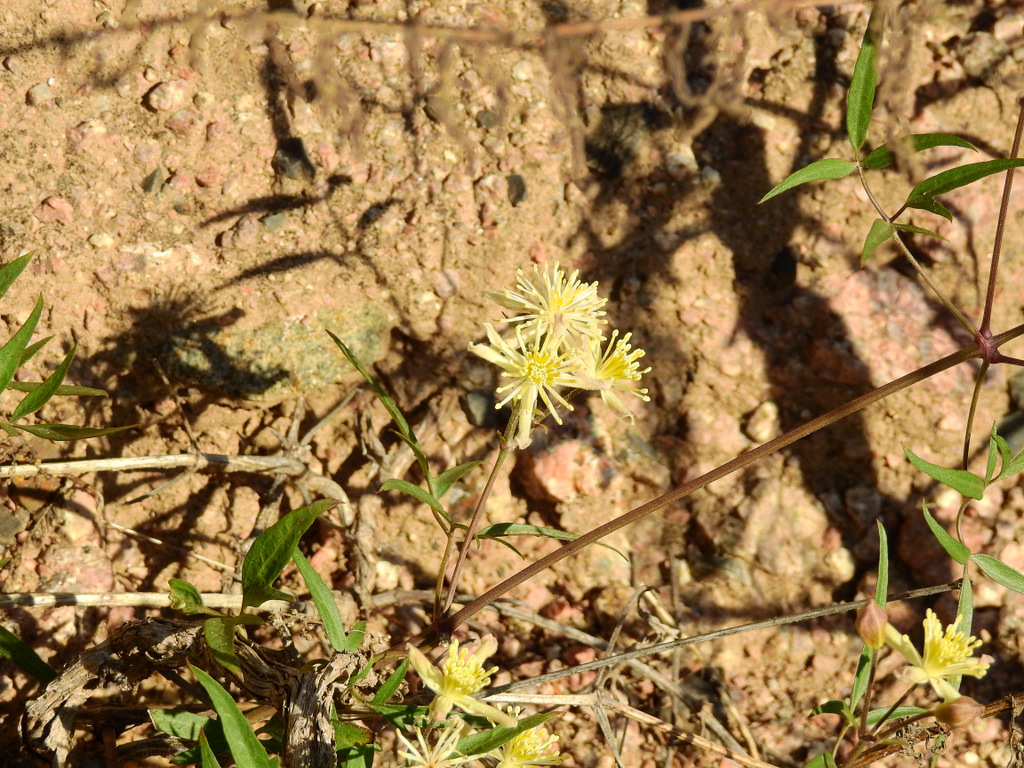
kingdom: Plantae
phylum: Tracheophyta
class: Magnoliopsida
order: Ranunculales
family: Ranunculaceae
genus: Clematis
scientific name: Clematis montevidensis
